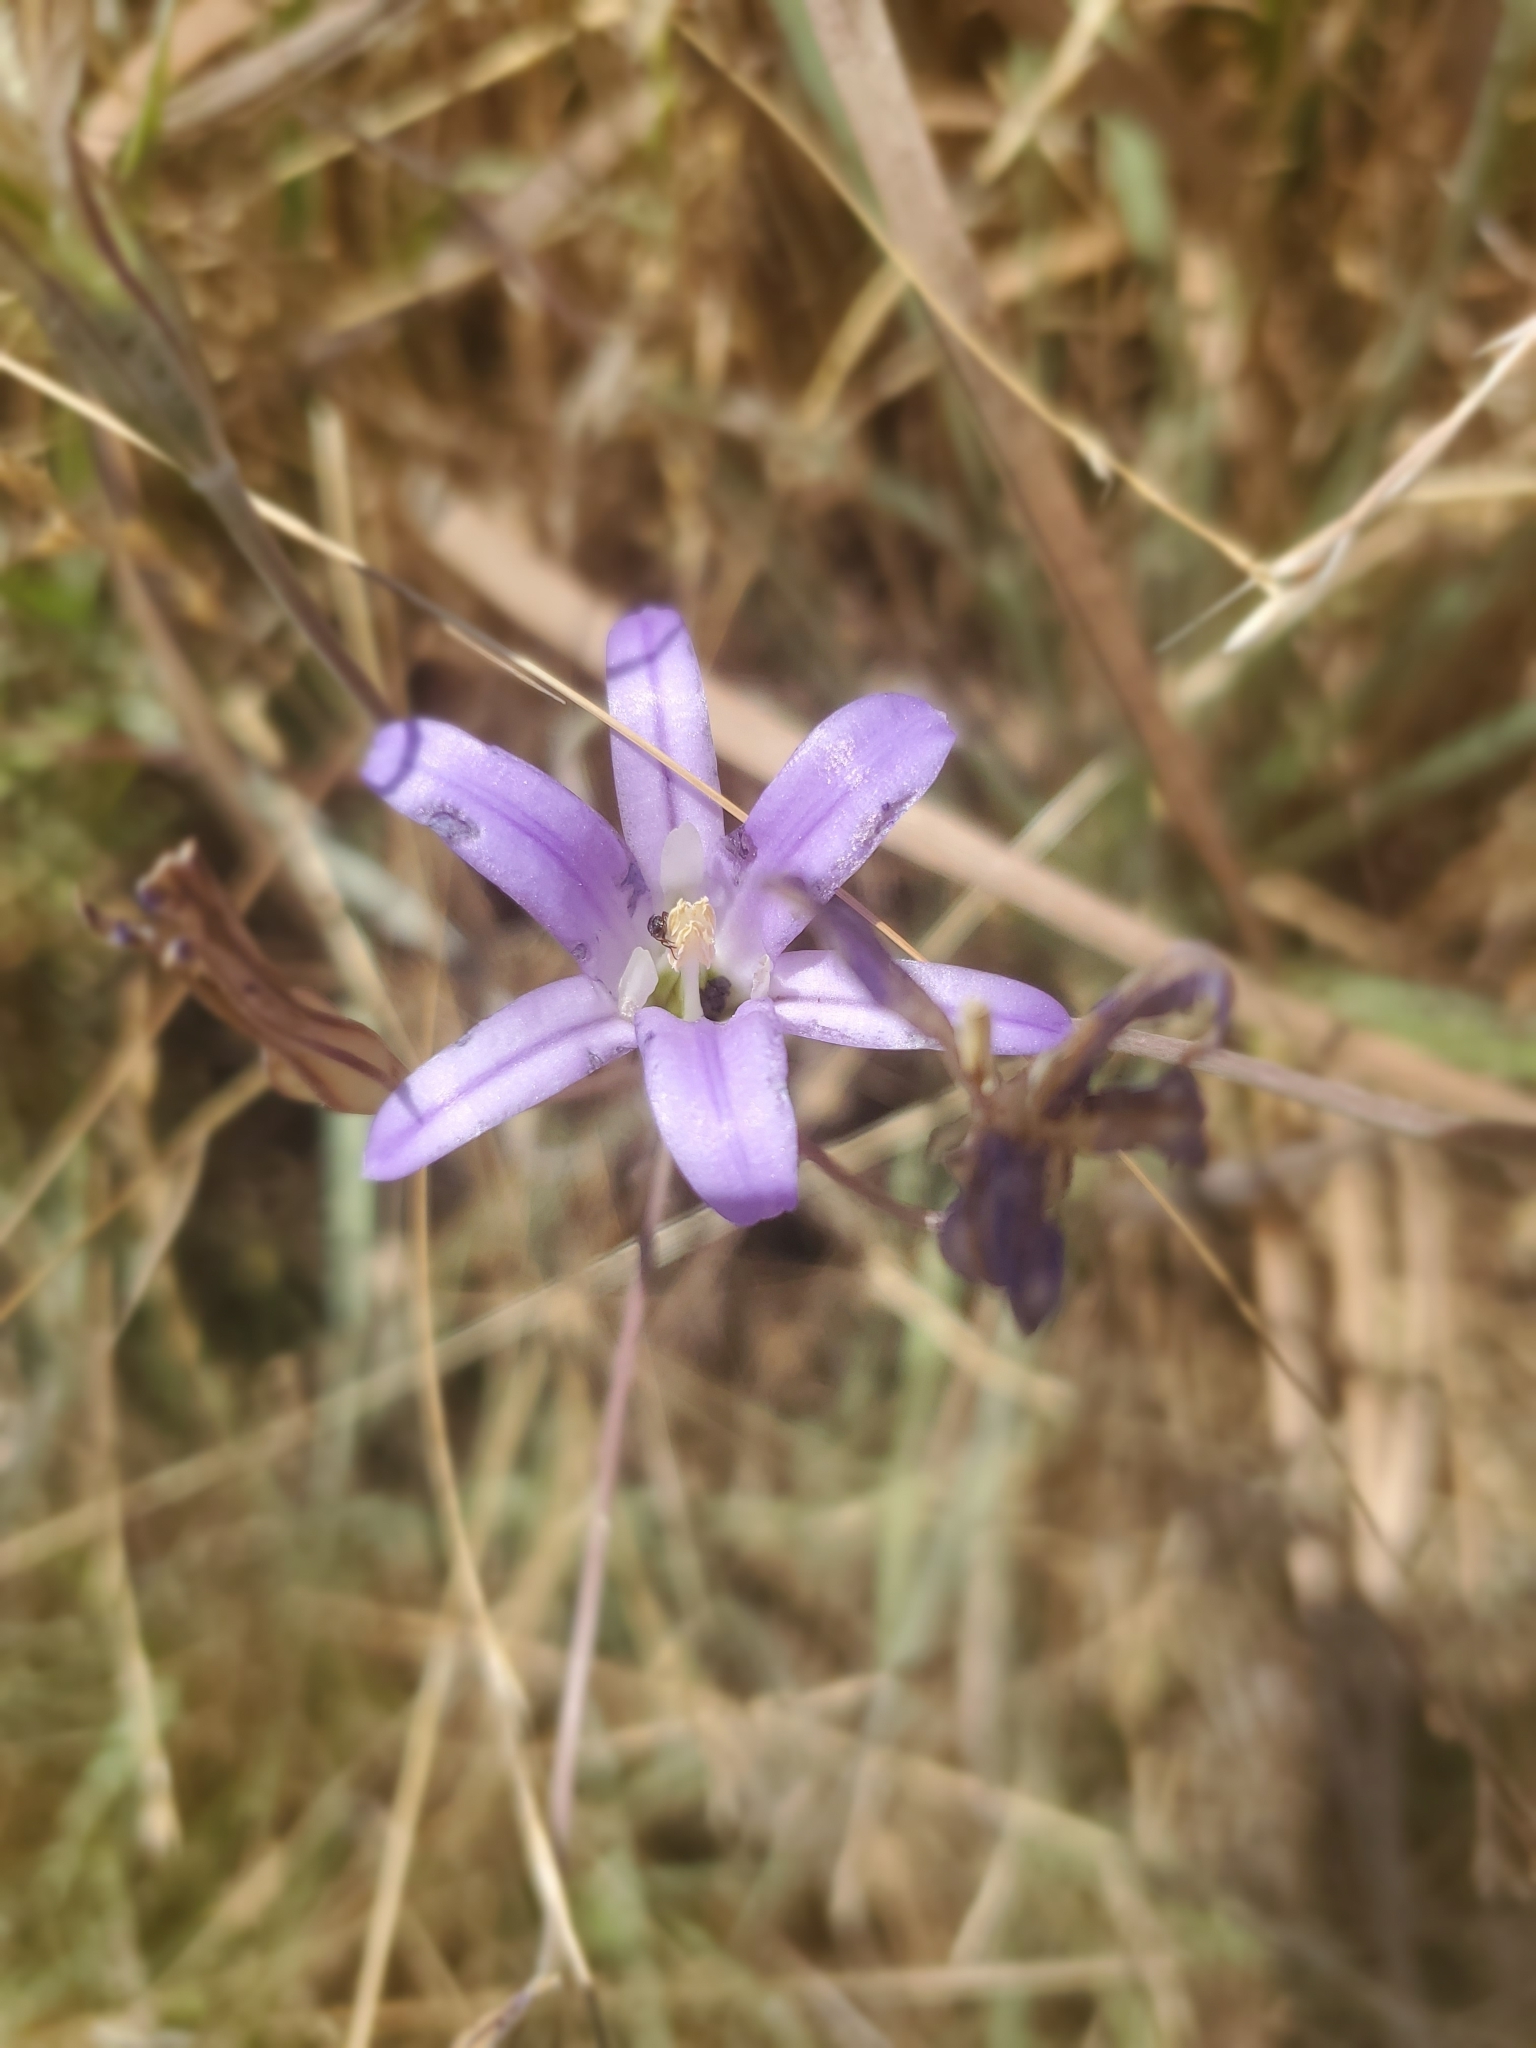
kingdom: Plantae
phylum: Tracheophyta
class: Liliopsida
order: Asparagales
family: Asparagaceae
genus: Brodiaea
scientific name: Brodiaea elegans
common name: Elegant cluster-lily
